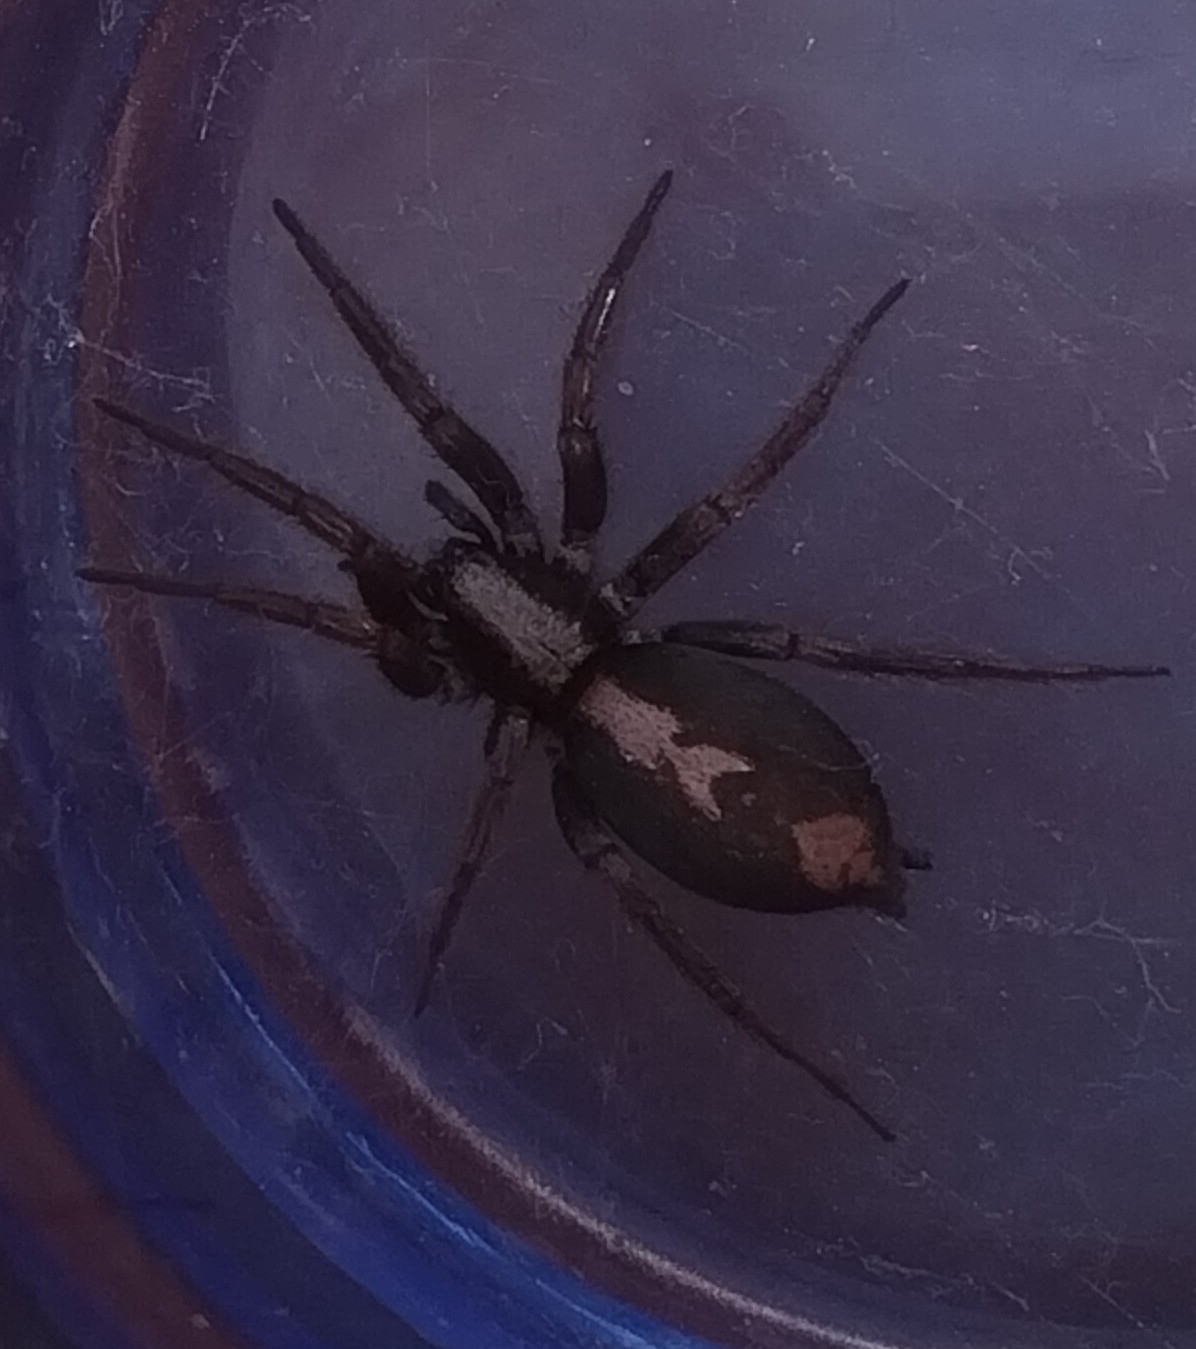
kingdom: Animalia
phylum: Arthropoda
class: Arachnida
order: Araneae
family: Gnaphosidae
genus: Herpyllus
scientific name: Herpyllus ecclesiasticus
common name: Eastern parson spider
